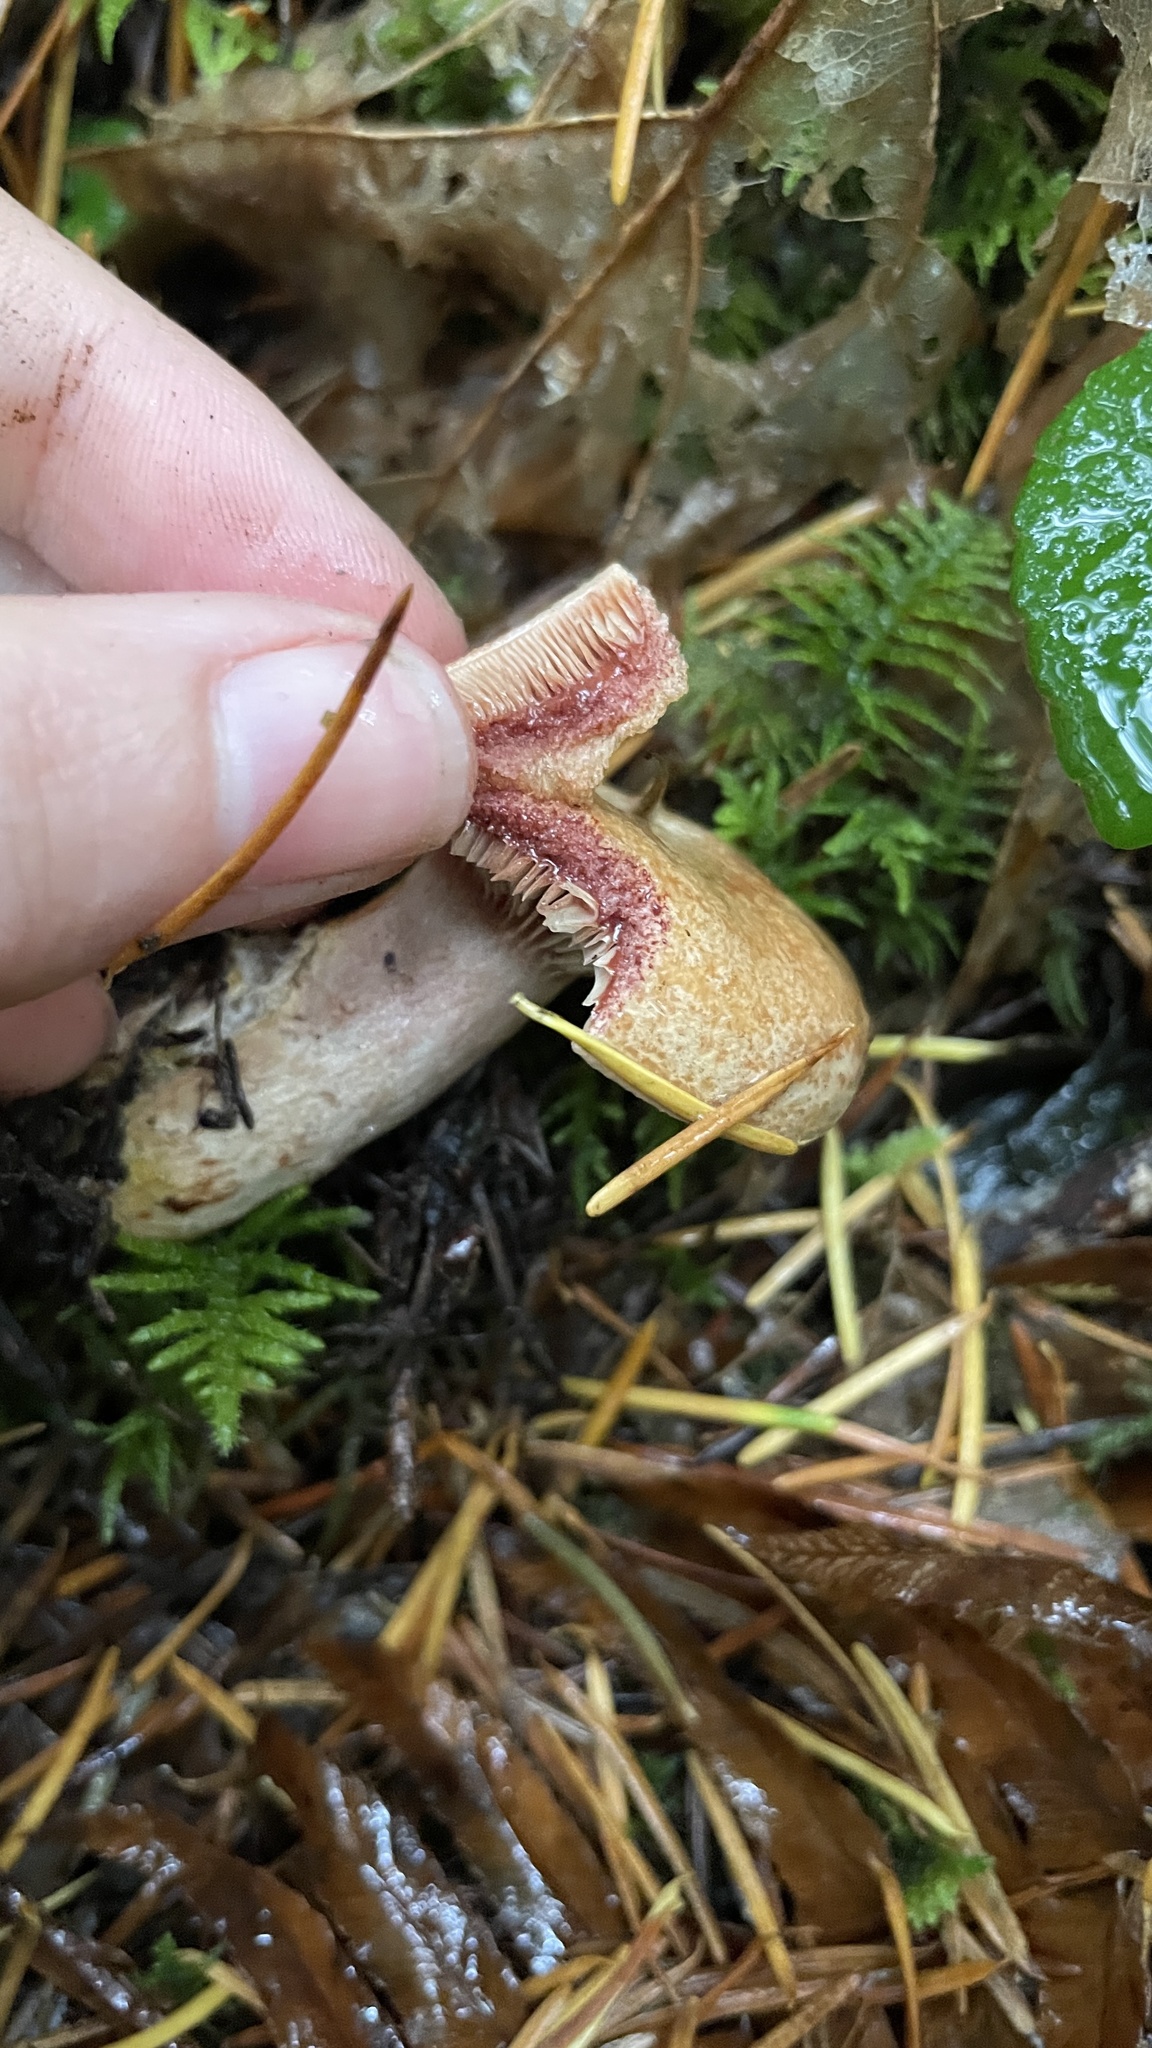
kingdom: Fungi
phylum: Basidiomycota
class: Agaricomycetes
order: Russulales
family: Russulaceae
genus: Lactarius
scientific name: Lactarius rubrilacteus
